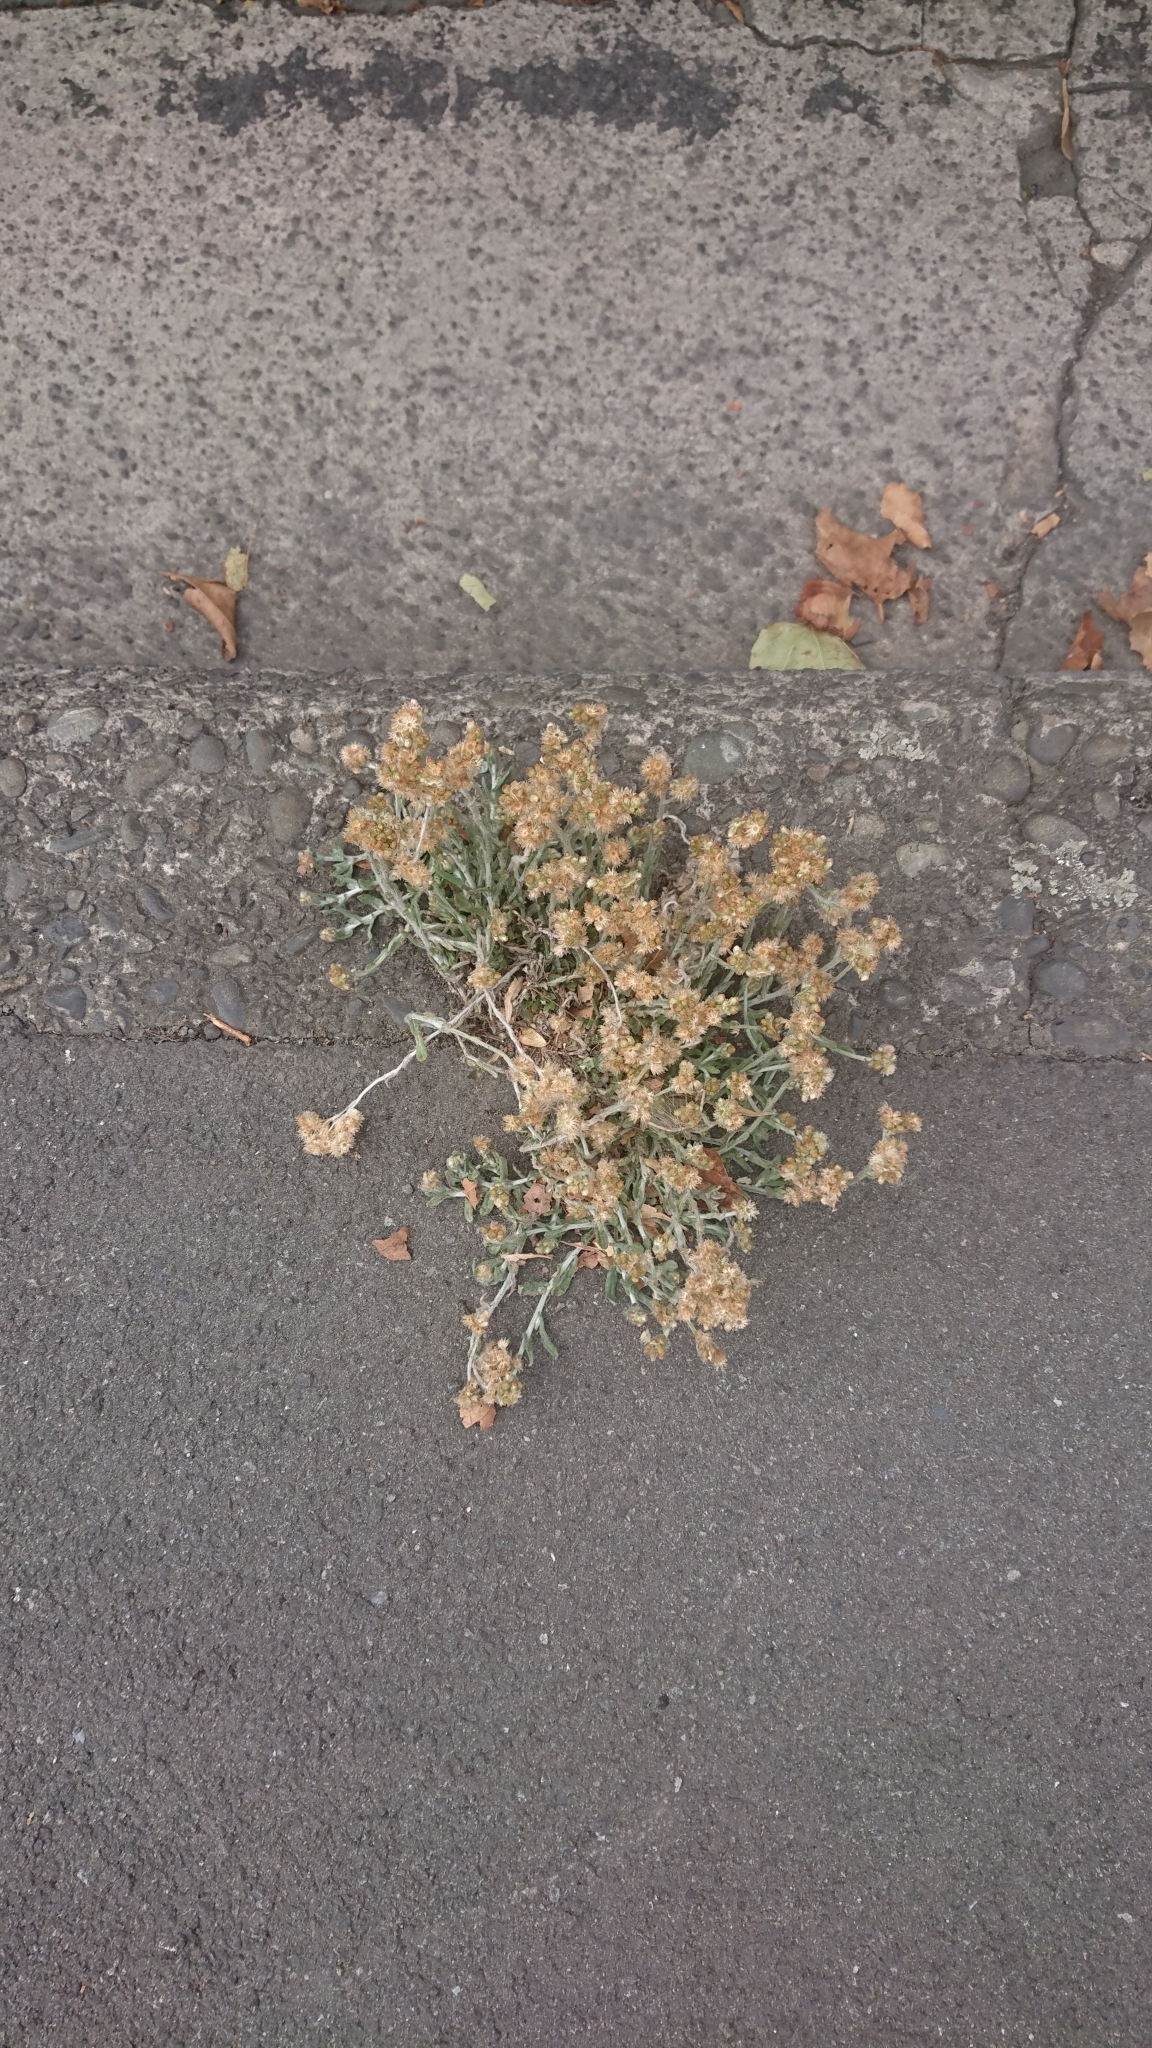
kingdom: Plantae
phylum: Tracheophyta
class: Magnoliopsida
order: Asterales
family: Asteraceae
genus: Helichrysum
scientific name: Helichrysum luteoalbum
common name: Daisy
